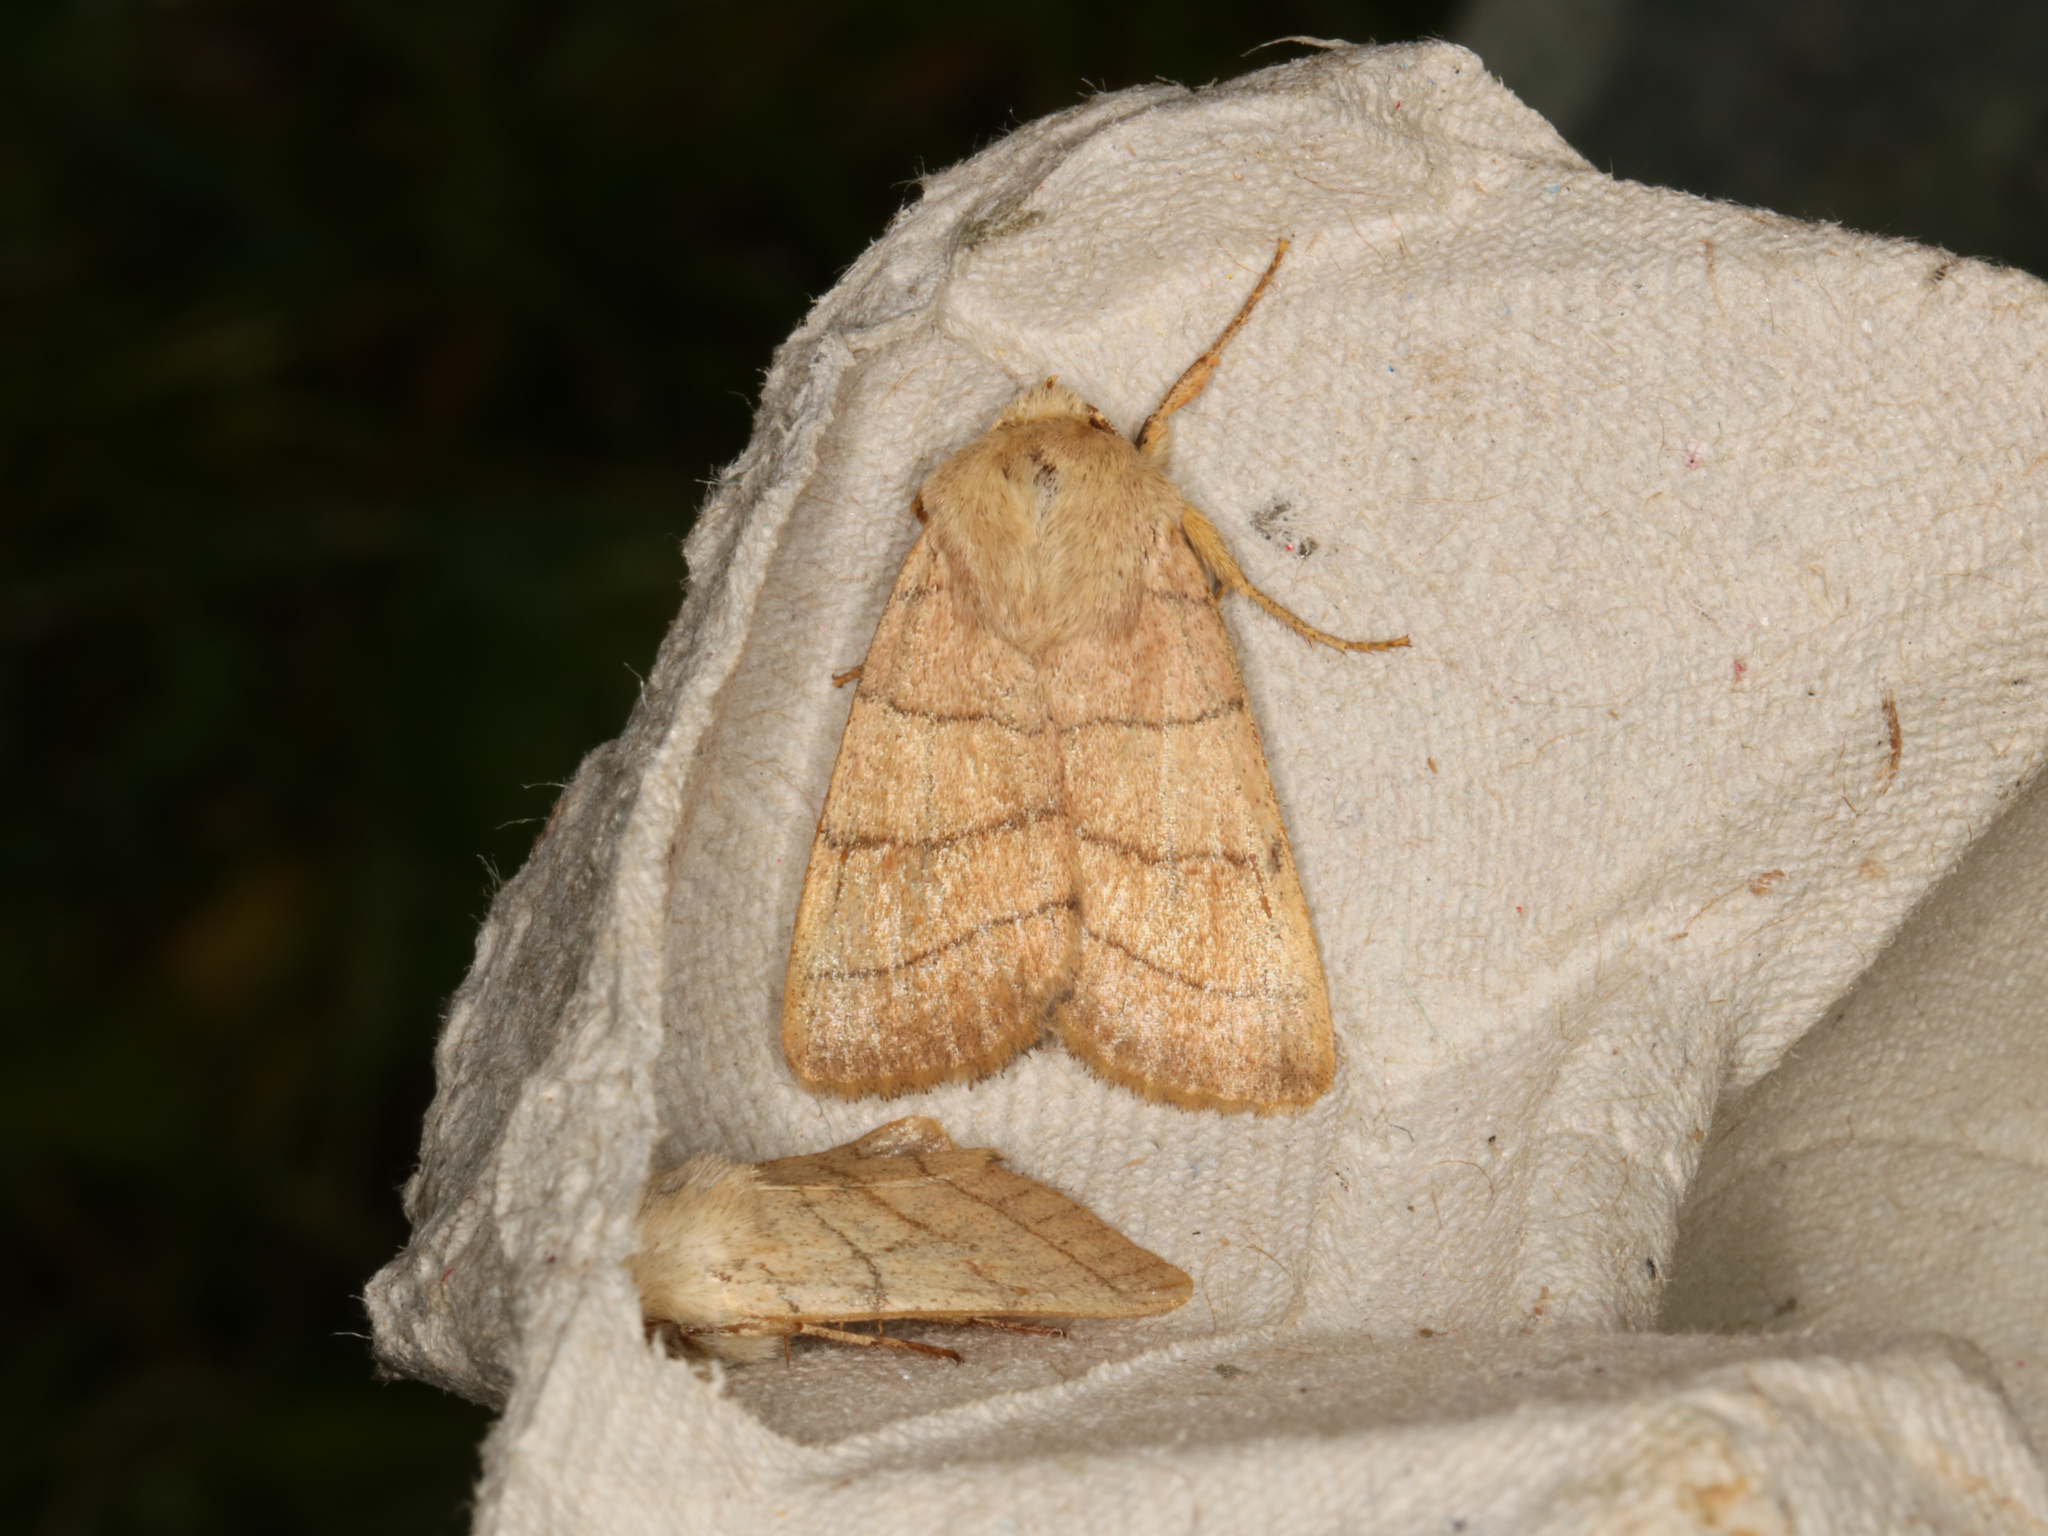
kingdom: Animalia
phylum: Arthropoda
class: Insecta
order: Lepidoptera
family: Noctuidae
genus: Charanyca
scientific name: Charanyca trigrammica
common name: Treble lines
